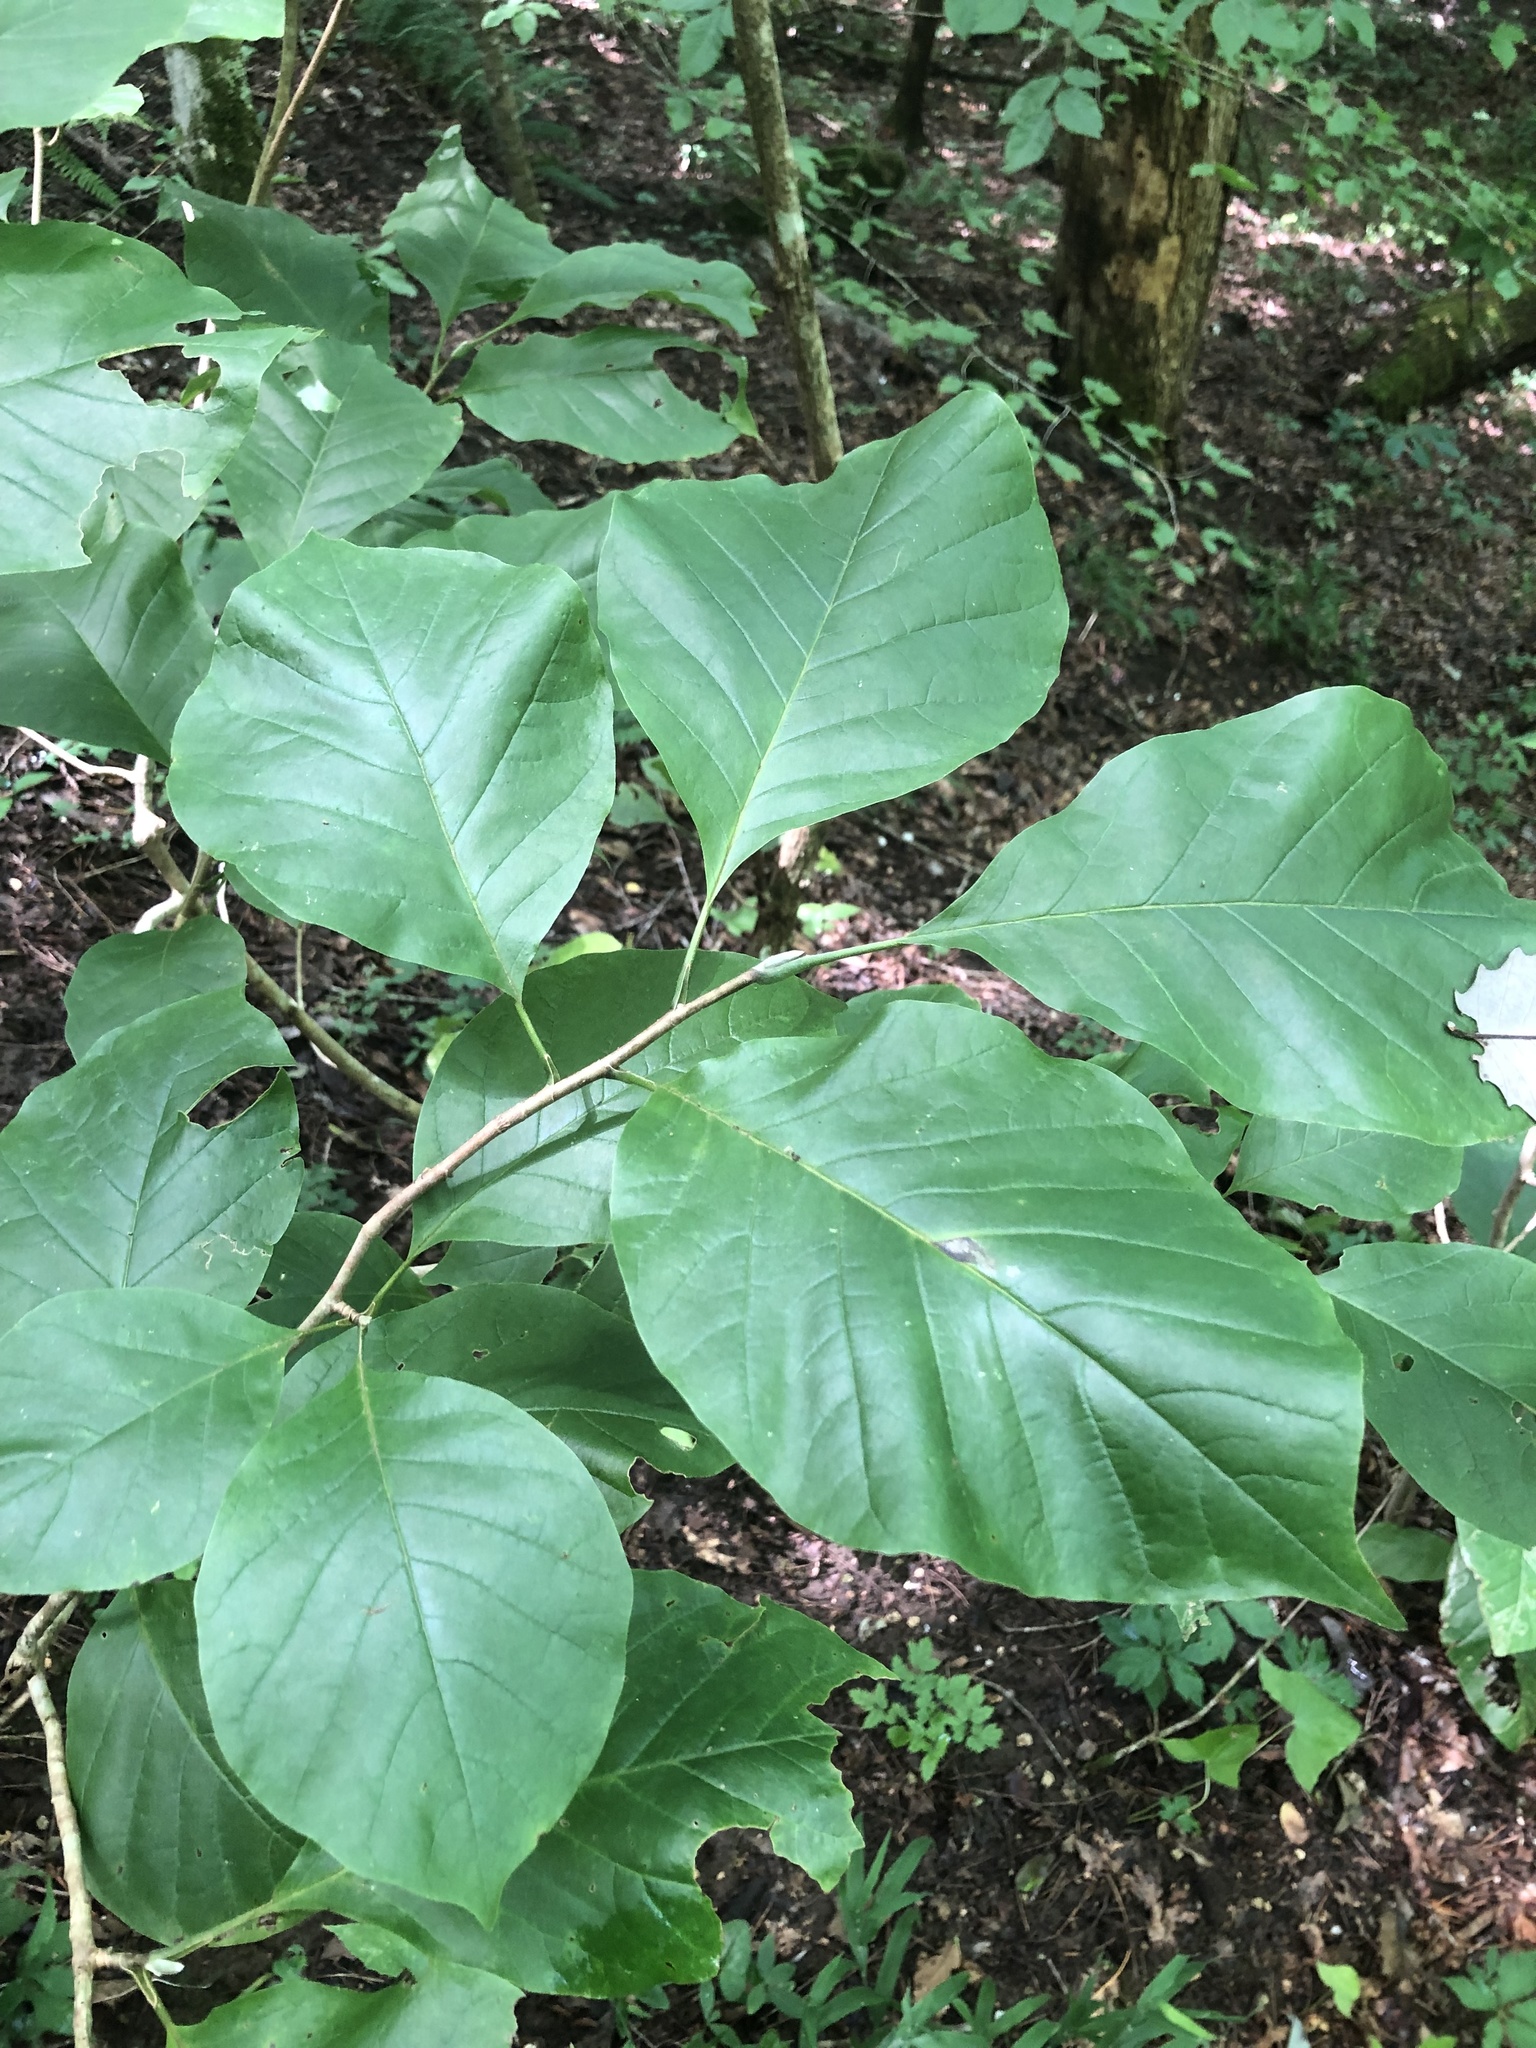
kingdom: Plantae
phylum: Tracheophyta
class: Magnoliopsida
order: Magnoliales
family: Magnoliaceae
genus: Magnolia
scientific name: Magnolia acuminata
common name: Cucumber magnolia
